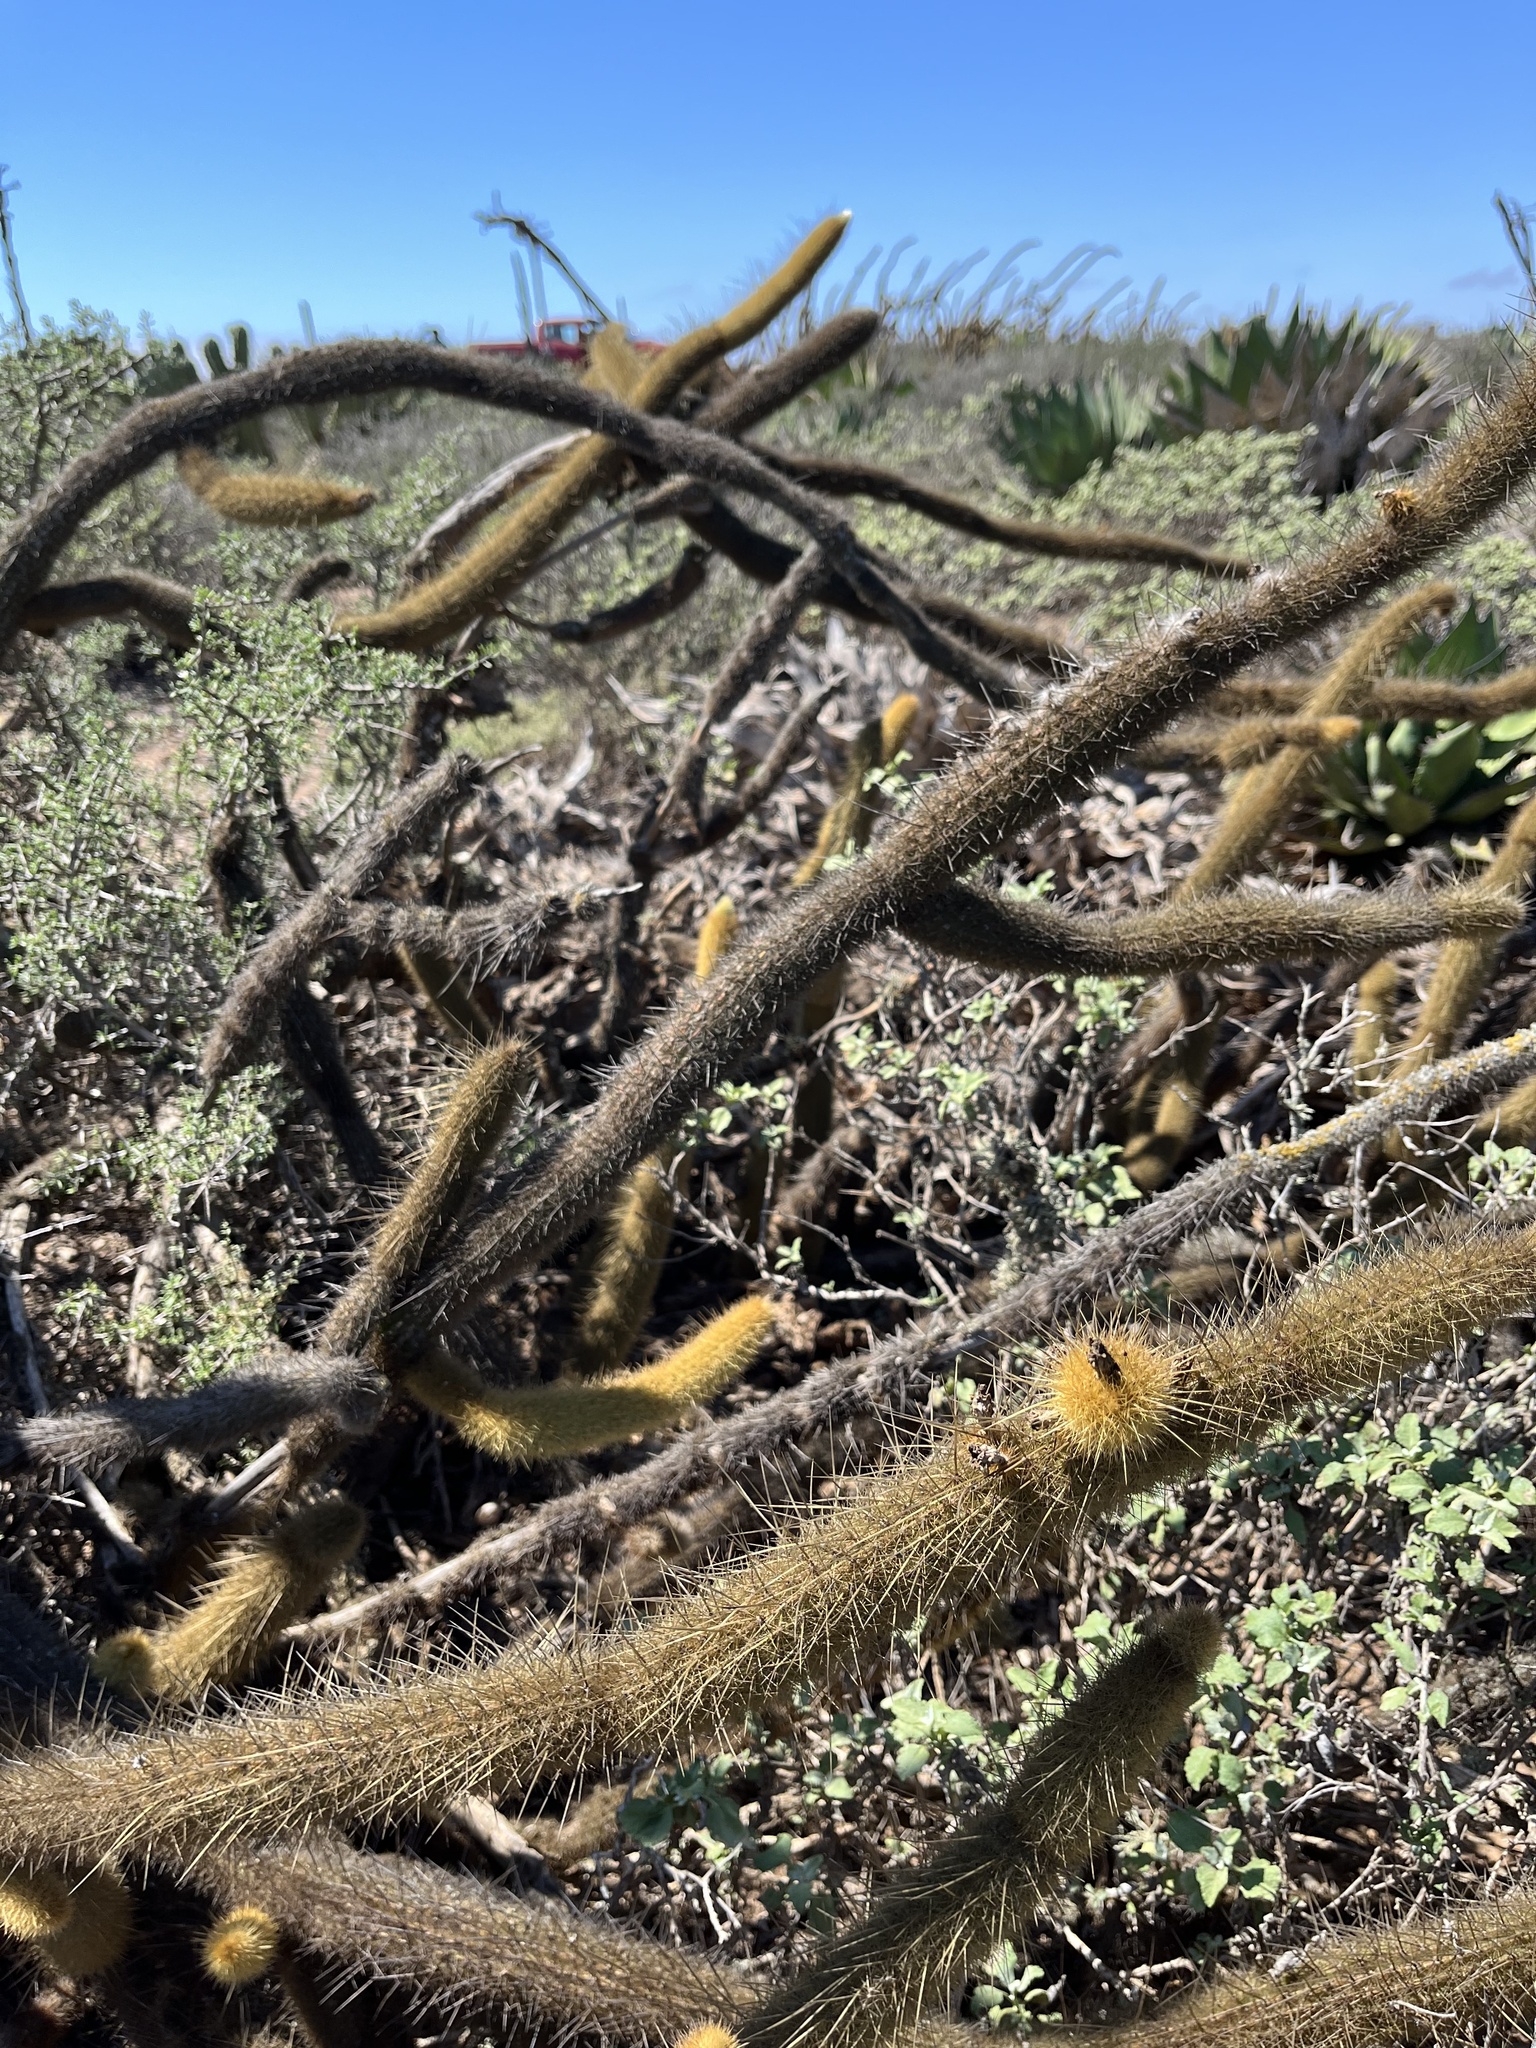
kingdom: Plantae
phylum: Tracheophyta
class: Magnoliopsida
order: Caryophyllales
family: Cactaceae
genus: Bergerocactus
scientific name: Bergerocactus emoryi
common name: Golden snakecactus
